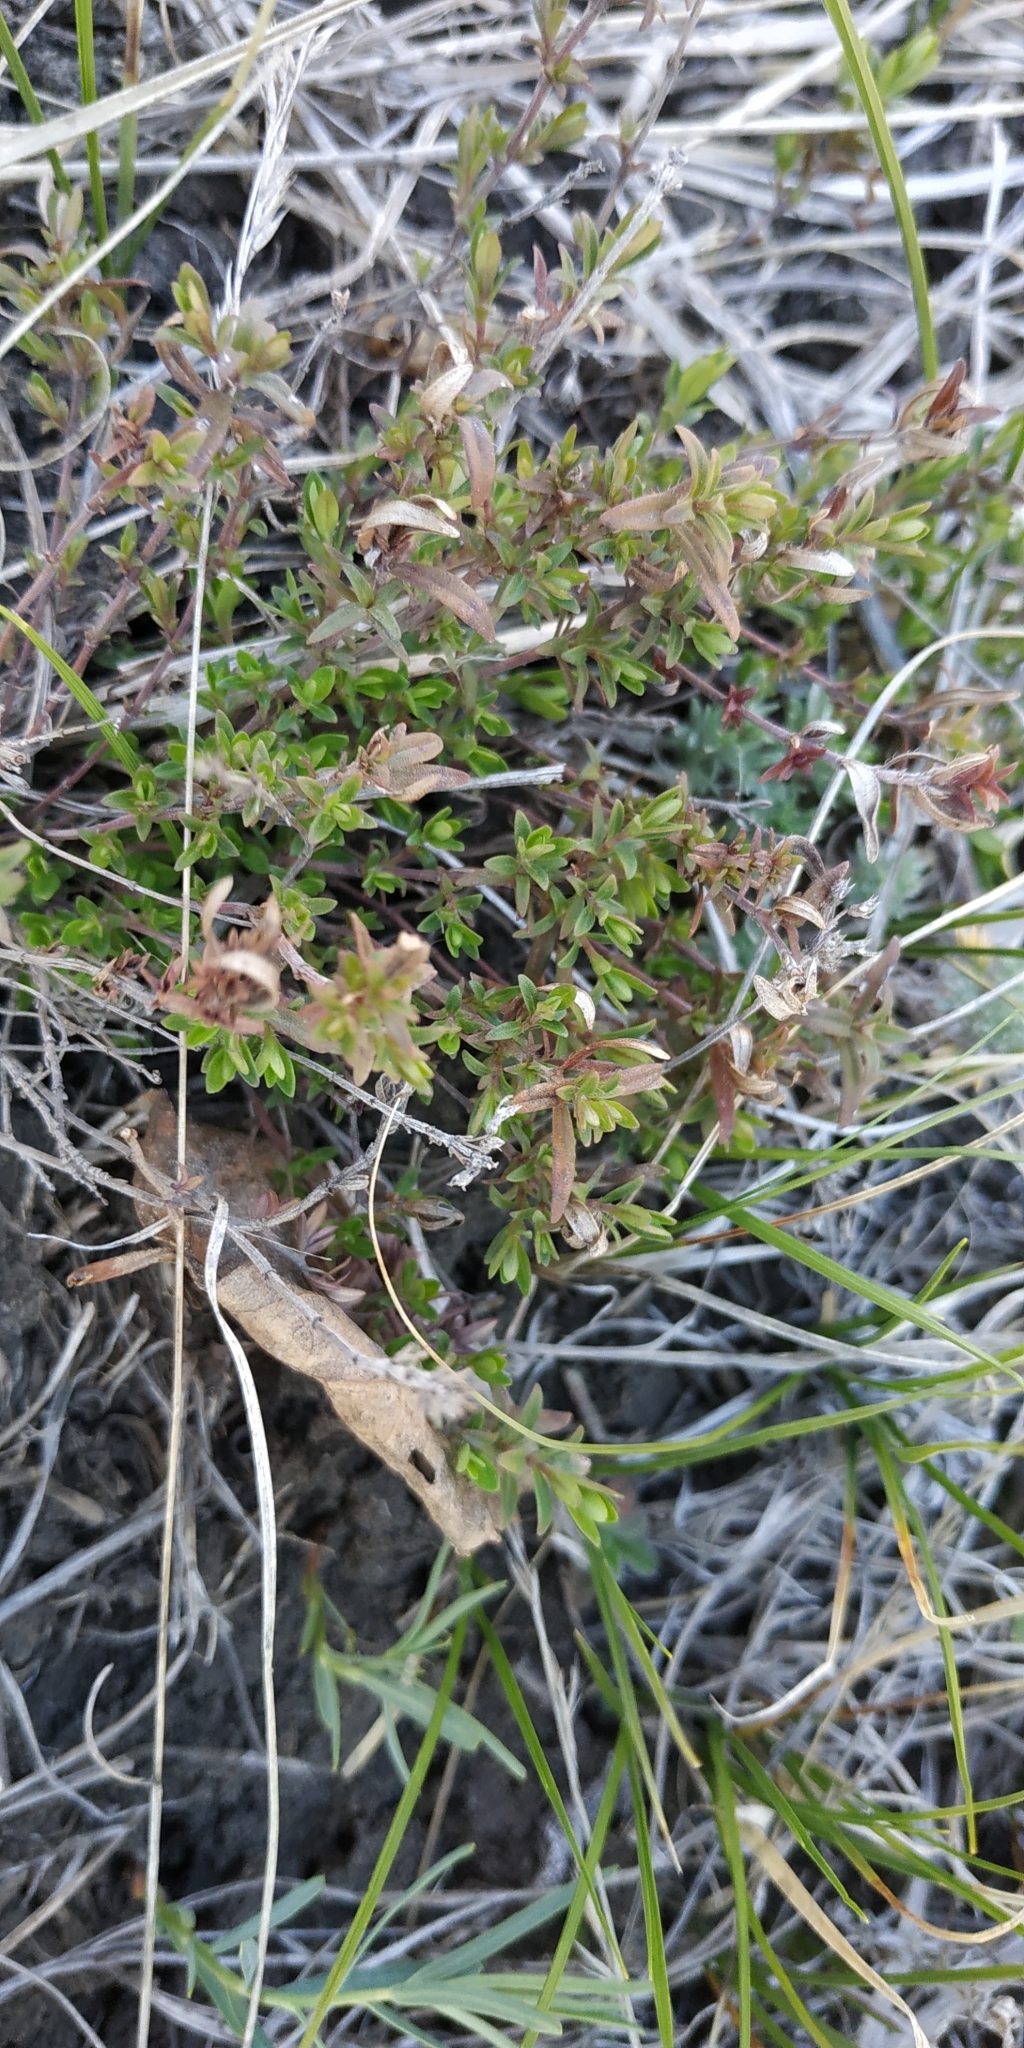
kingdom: Plantae
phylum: Tracheophyta
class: Magnoliopsida
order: Lamiales
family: Lamiaceae
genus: Thymus
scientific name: Thymus pannonicus
